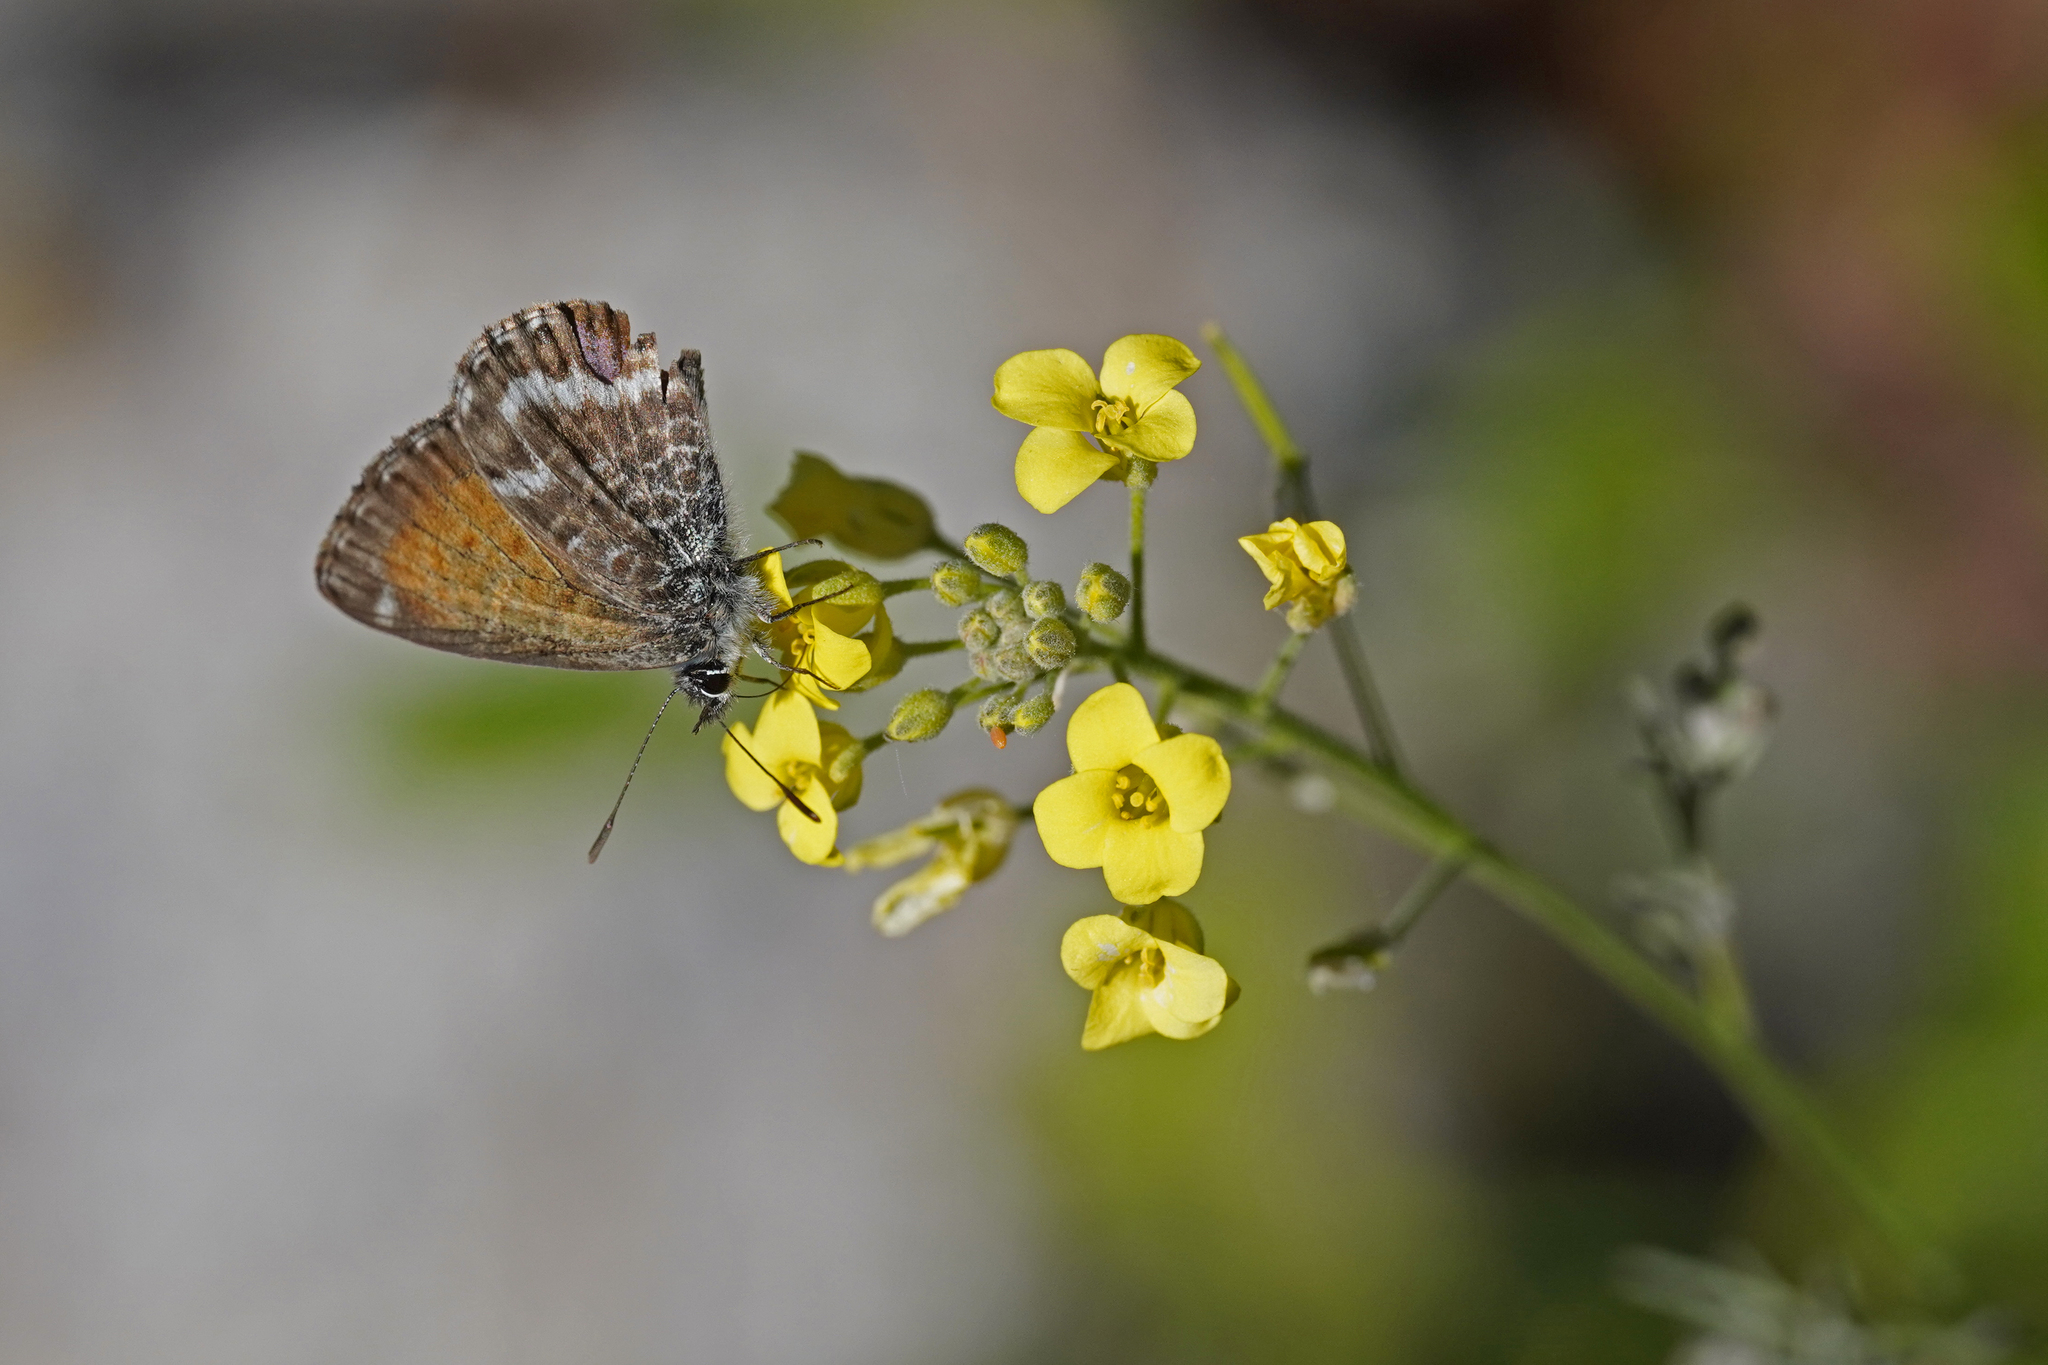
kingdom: Animalia
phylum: Arthropoda
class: Insecta
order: Lepidoptera
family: Lycaenidae
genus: Cyclyrius
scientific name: Cyclyrius webbianus
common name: Canary blue
